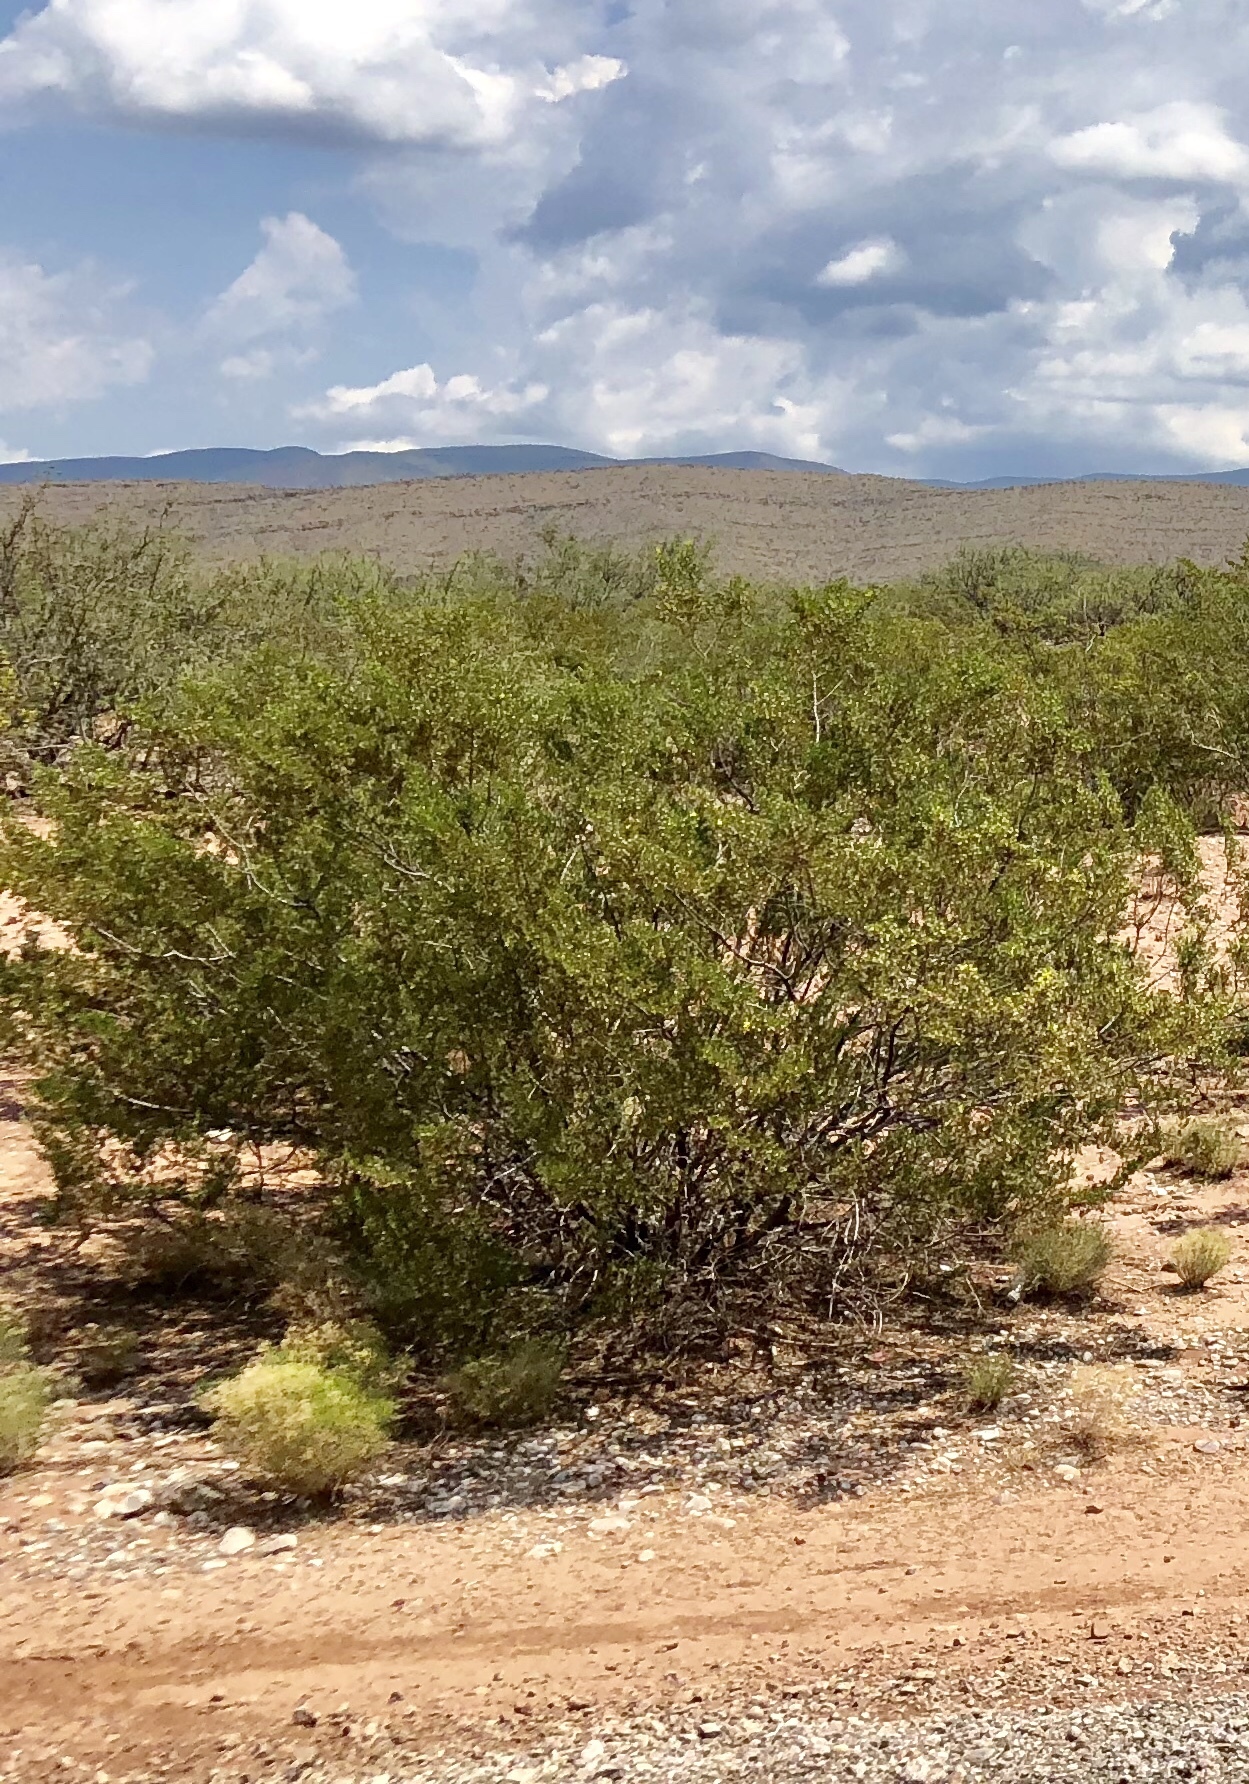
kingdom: Plantae
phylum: Tracheophyta
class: Magnoliopsida
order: Zygophyllales
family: Zygophyllaceae
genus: Larrea
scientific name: Larrea tridentata
